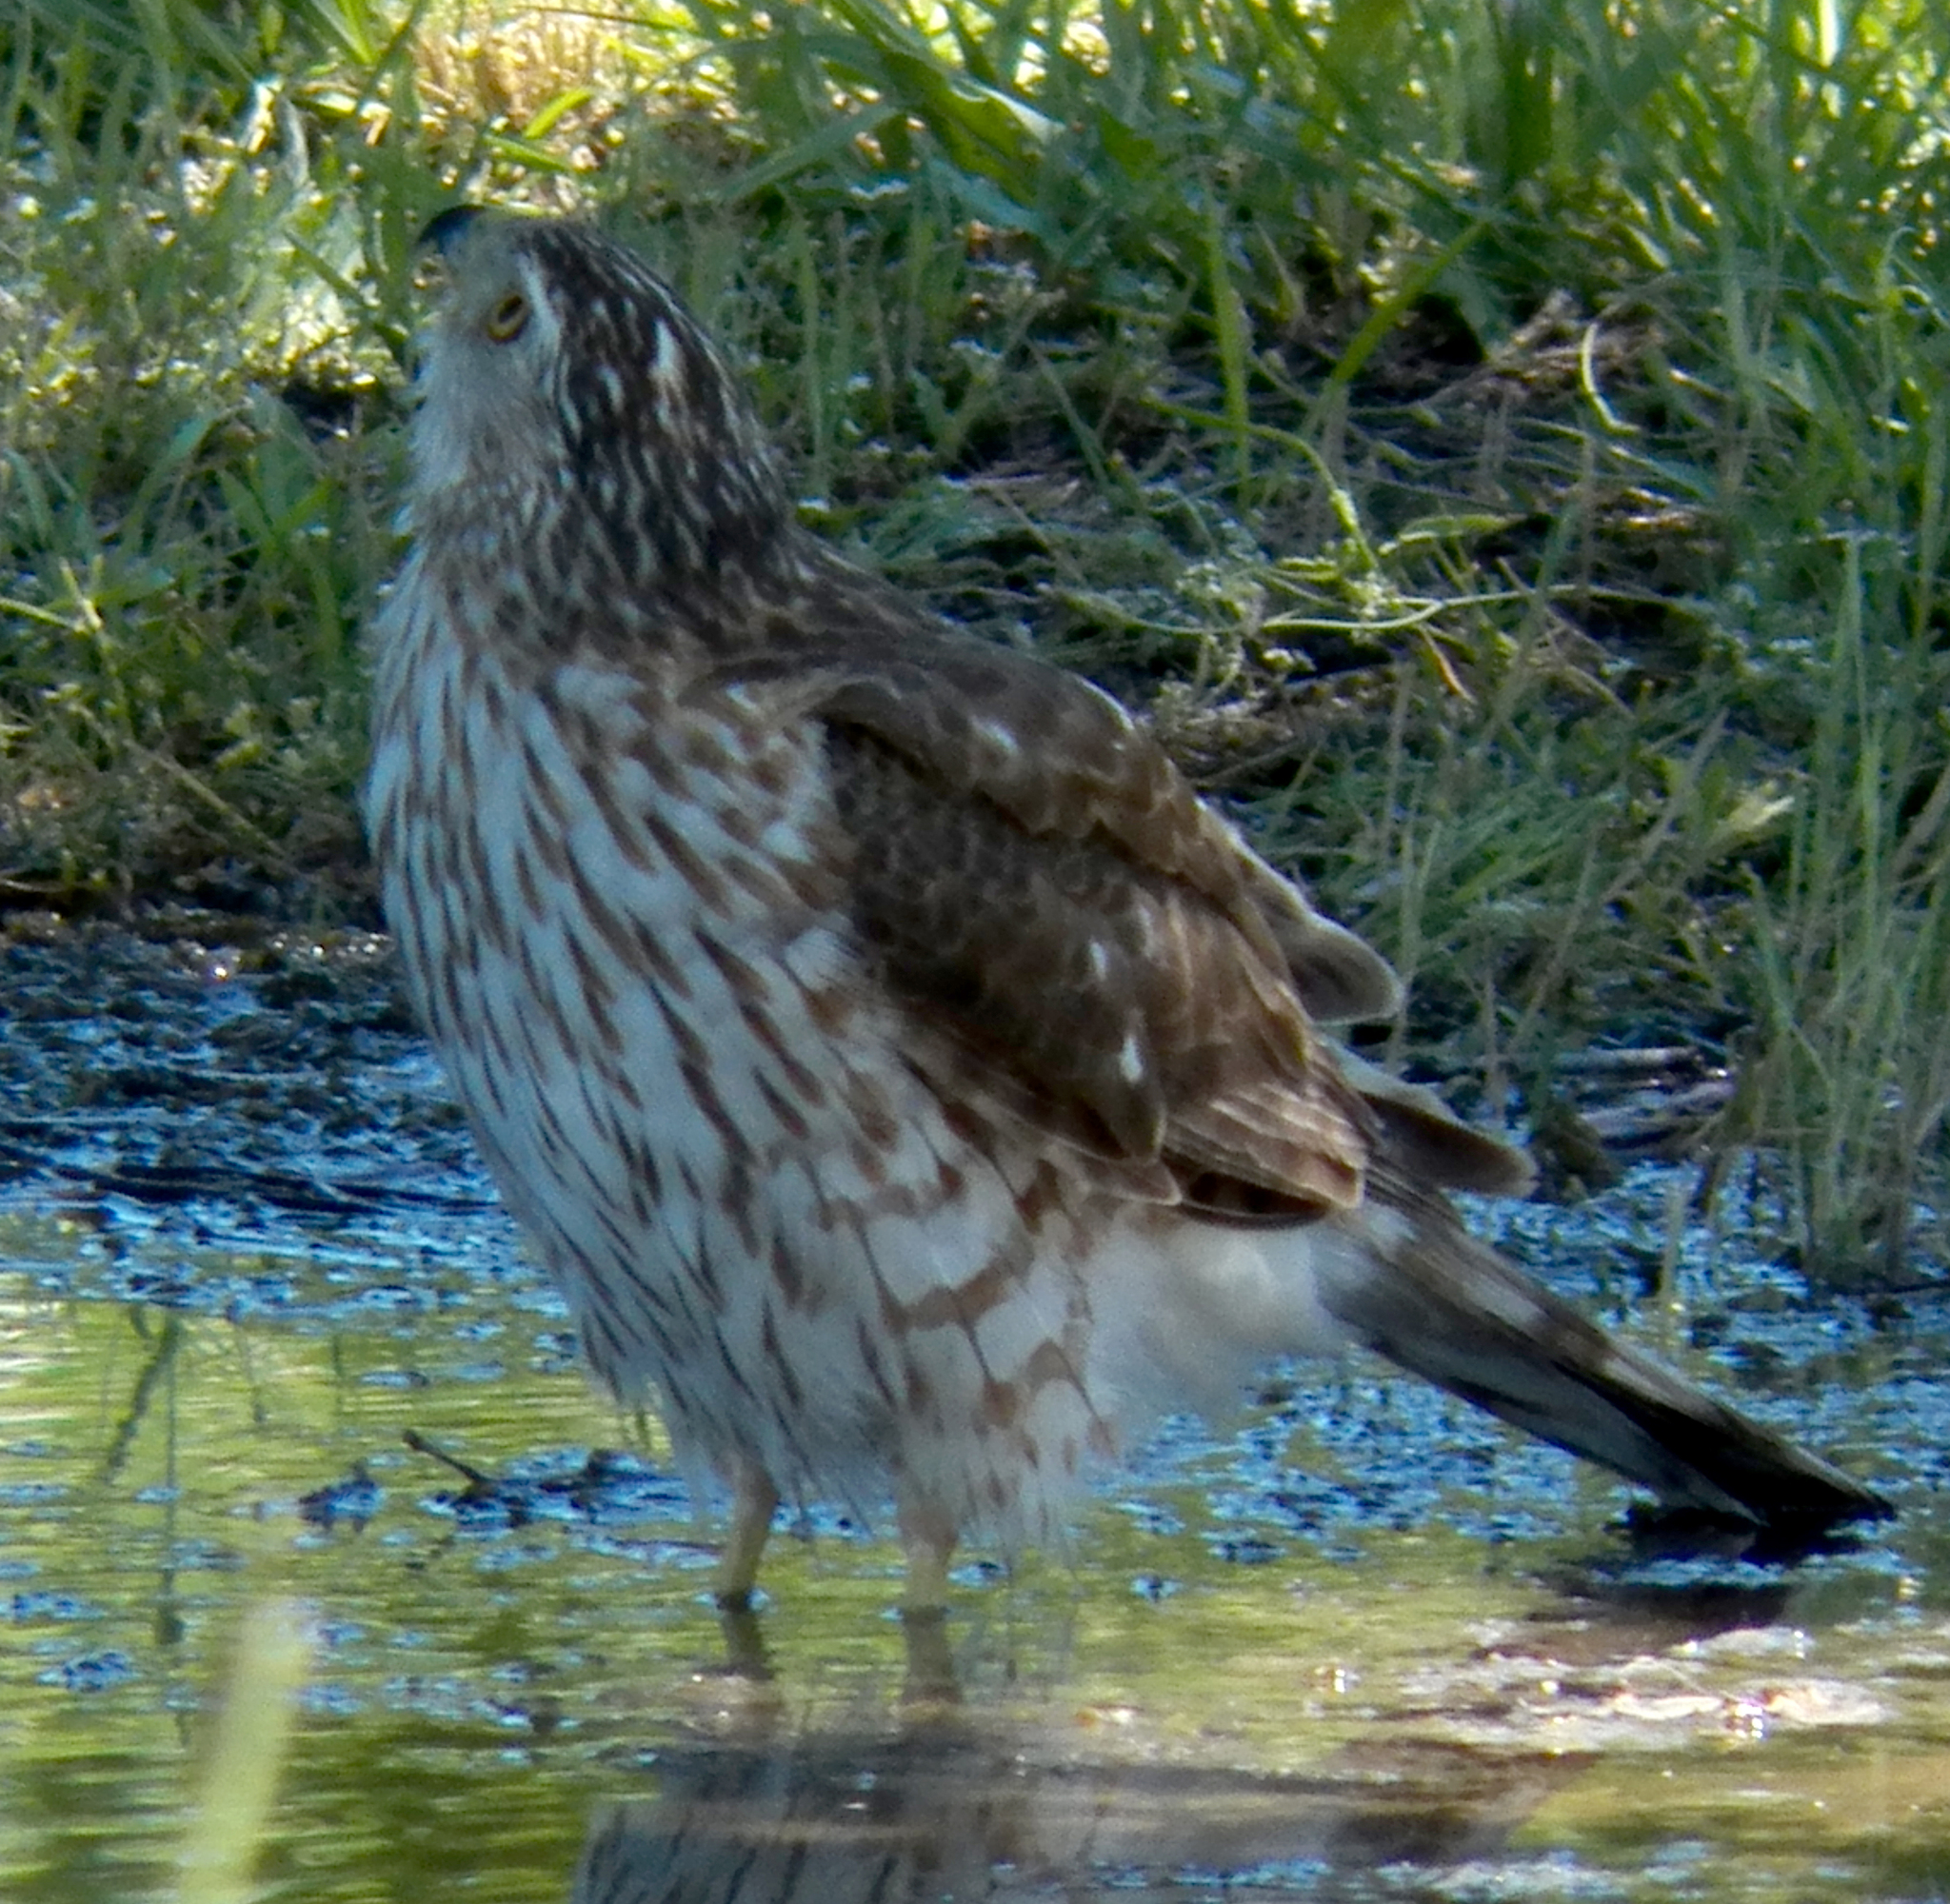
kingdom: Animalia
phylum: Chordata
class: Aves
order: Accipitriformes
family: Accipitridae
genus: Accipiter
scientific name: Accipiter cooperii
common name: Cooper's hawk
